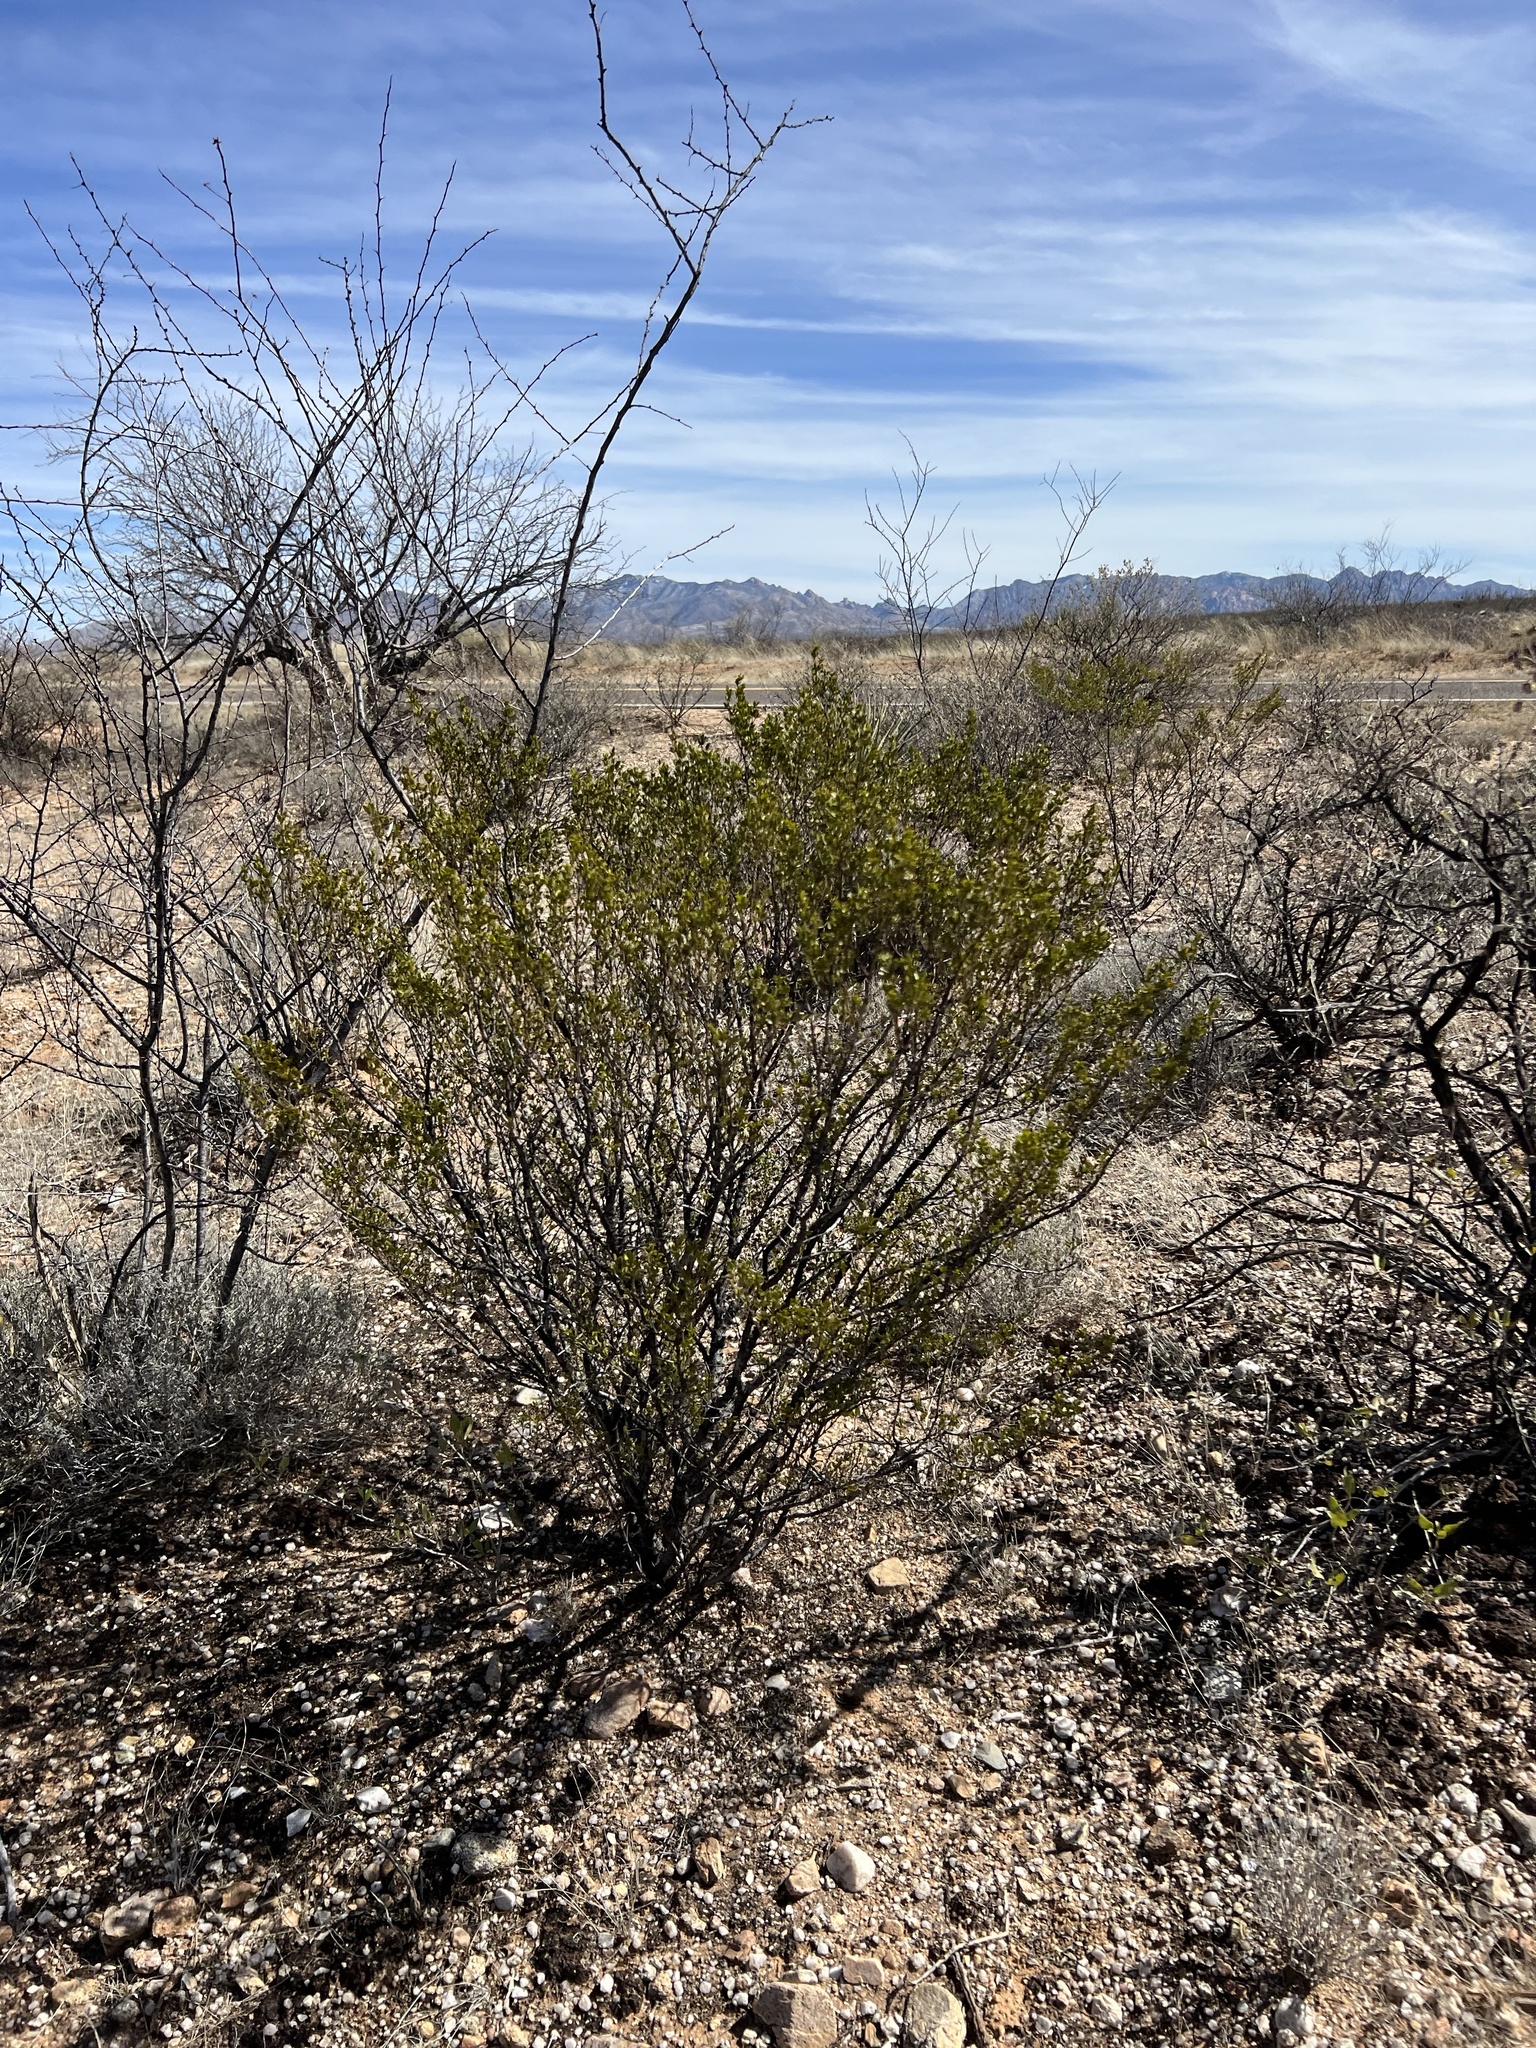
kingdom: Plantae
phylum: Tracheophyta
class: Magnoliopsida
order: Zygophyllales
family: Zygophyllaceae
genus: Larrea
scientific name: Larrea tridentata
